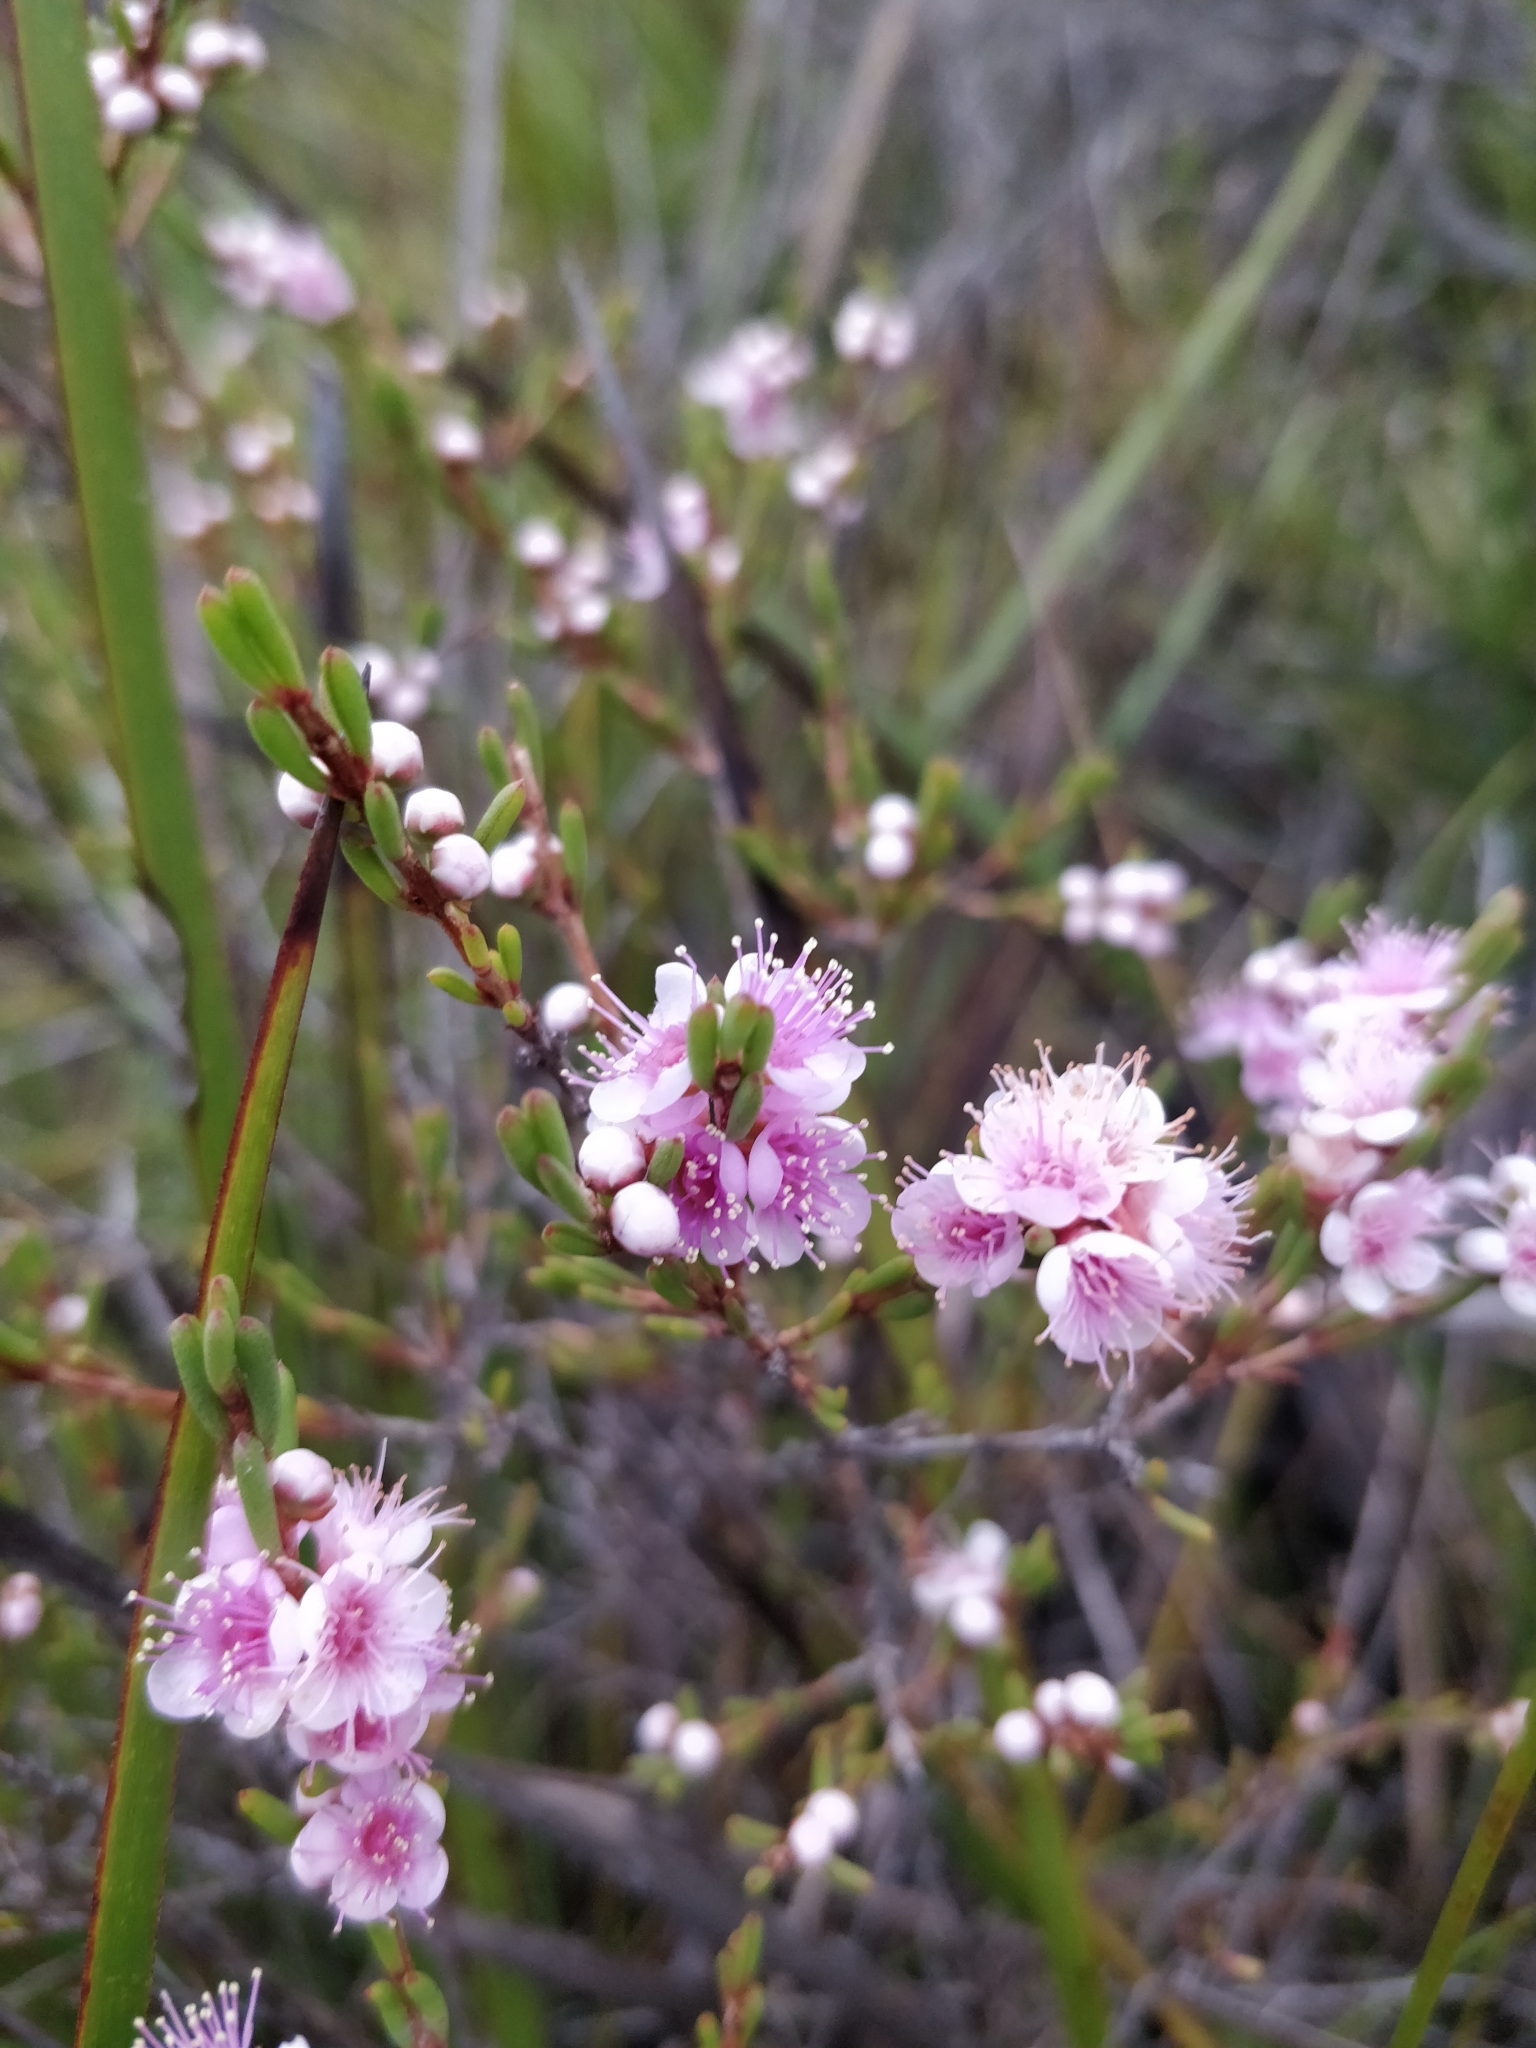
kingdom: Plantae
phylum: Tracheophyta
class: Magnoliopsida
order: Myrtales
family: Myrtaceae
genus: Hypocalymma
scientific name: Hypocalymma strictum
